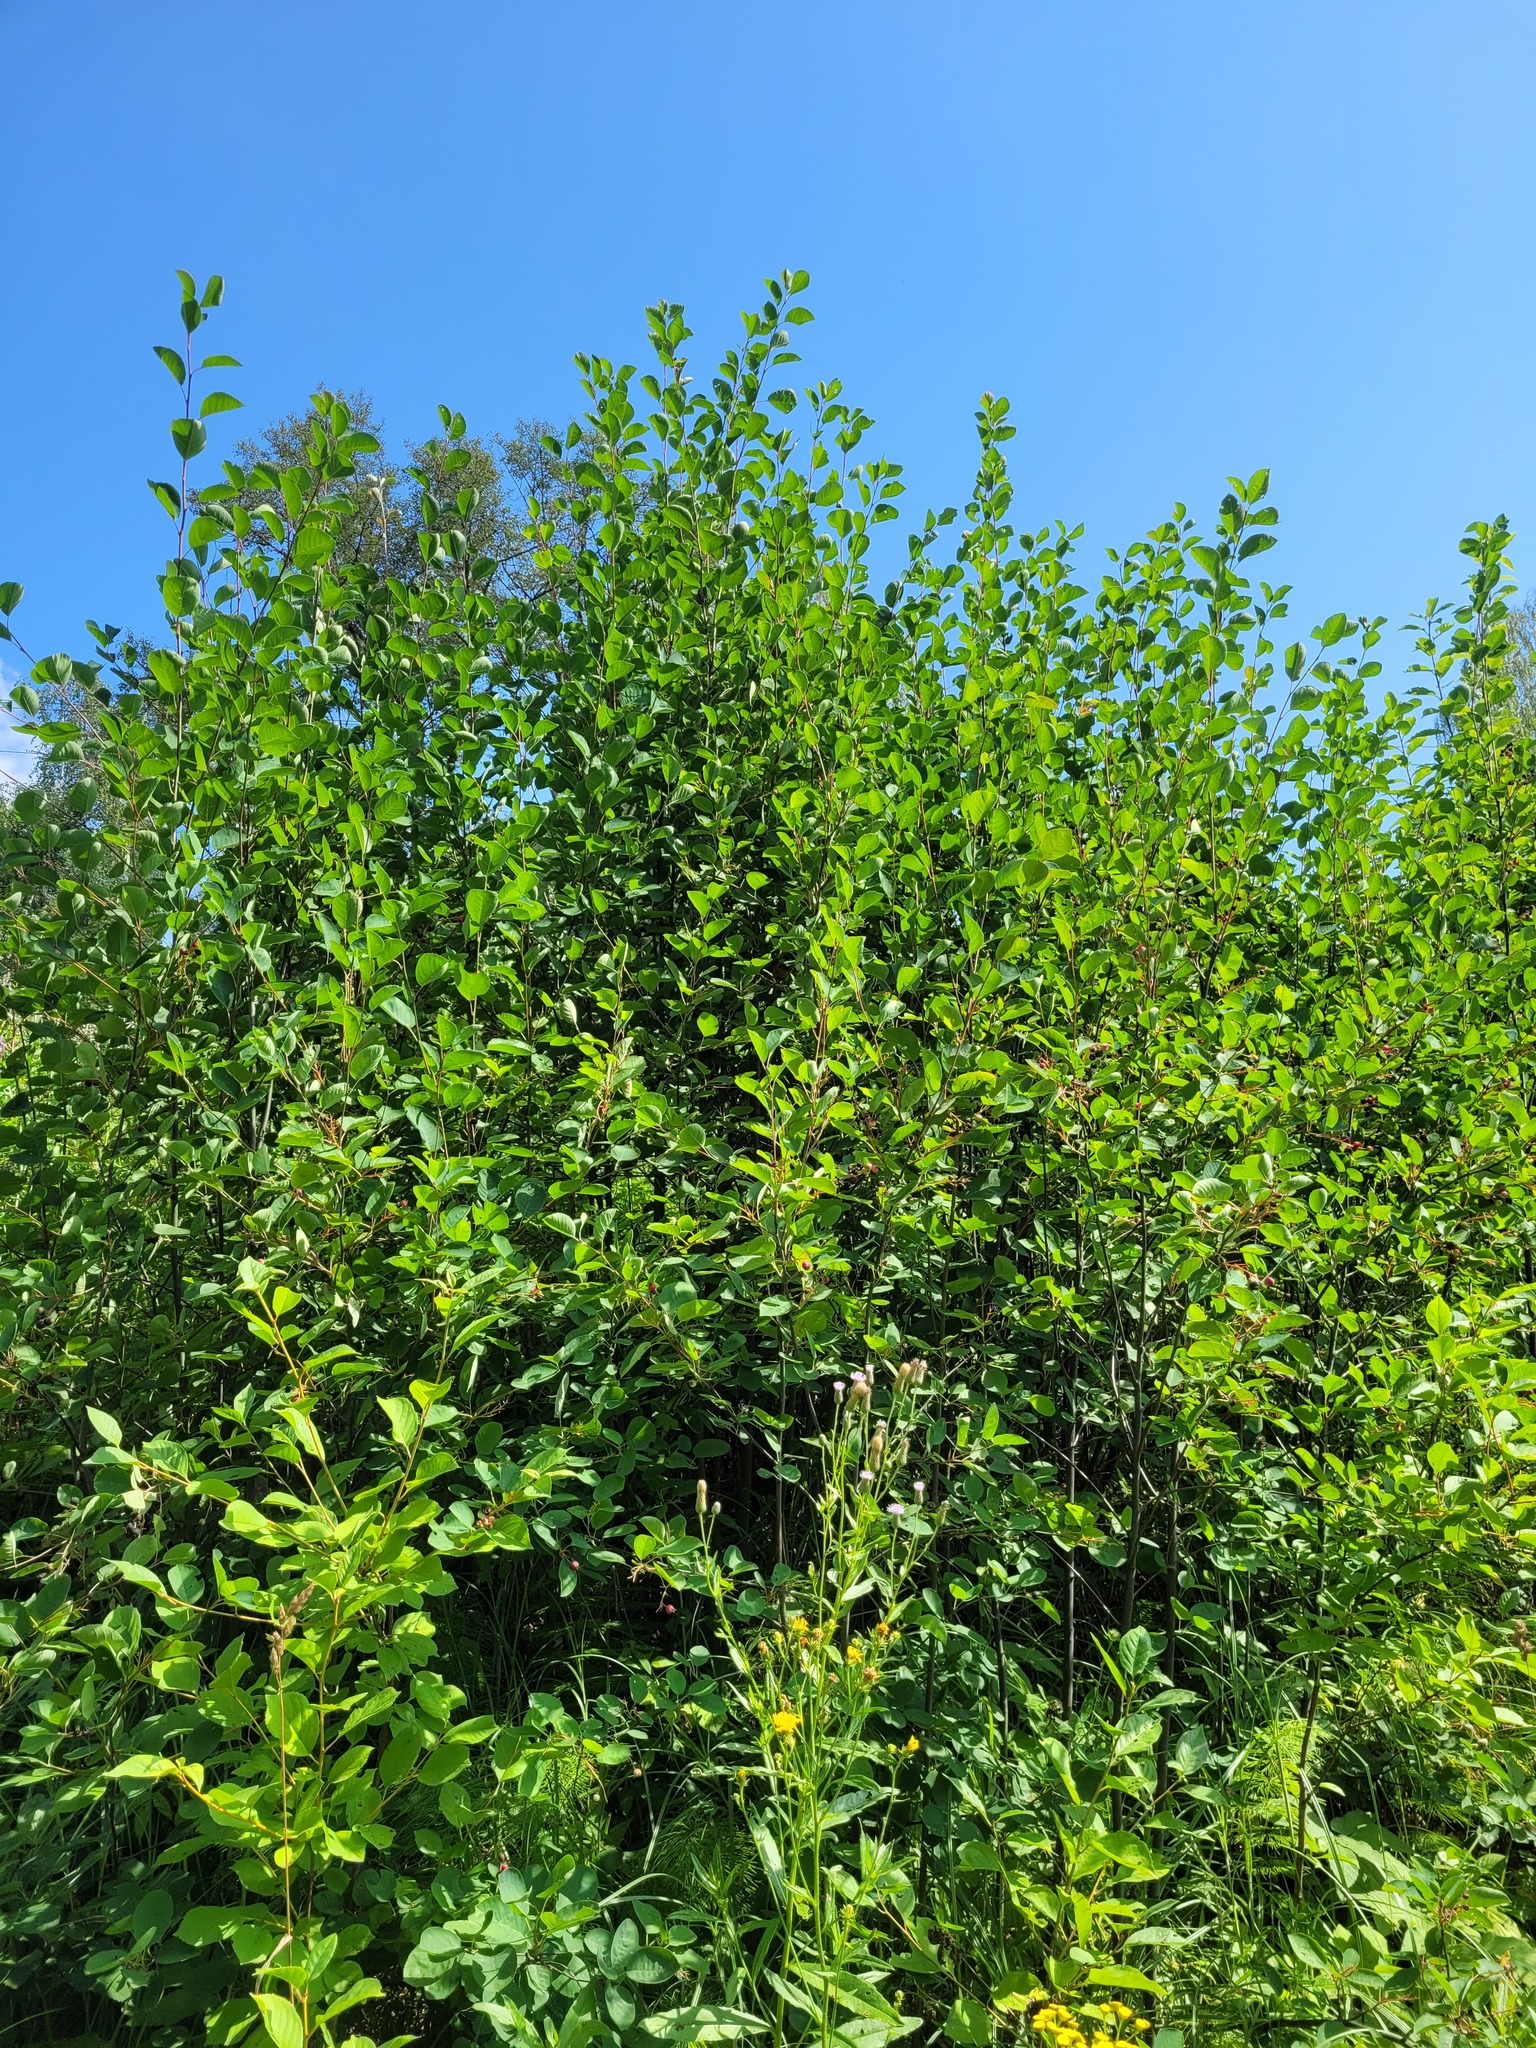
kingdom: Plantae
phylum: Tracheophyta
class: Magnoliopsida
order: Rosales
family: Rosaceae
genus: Amelanchier
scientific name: Amelanchier
